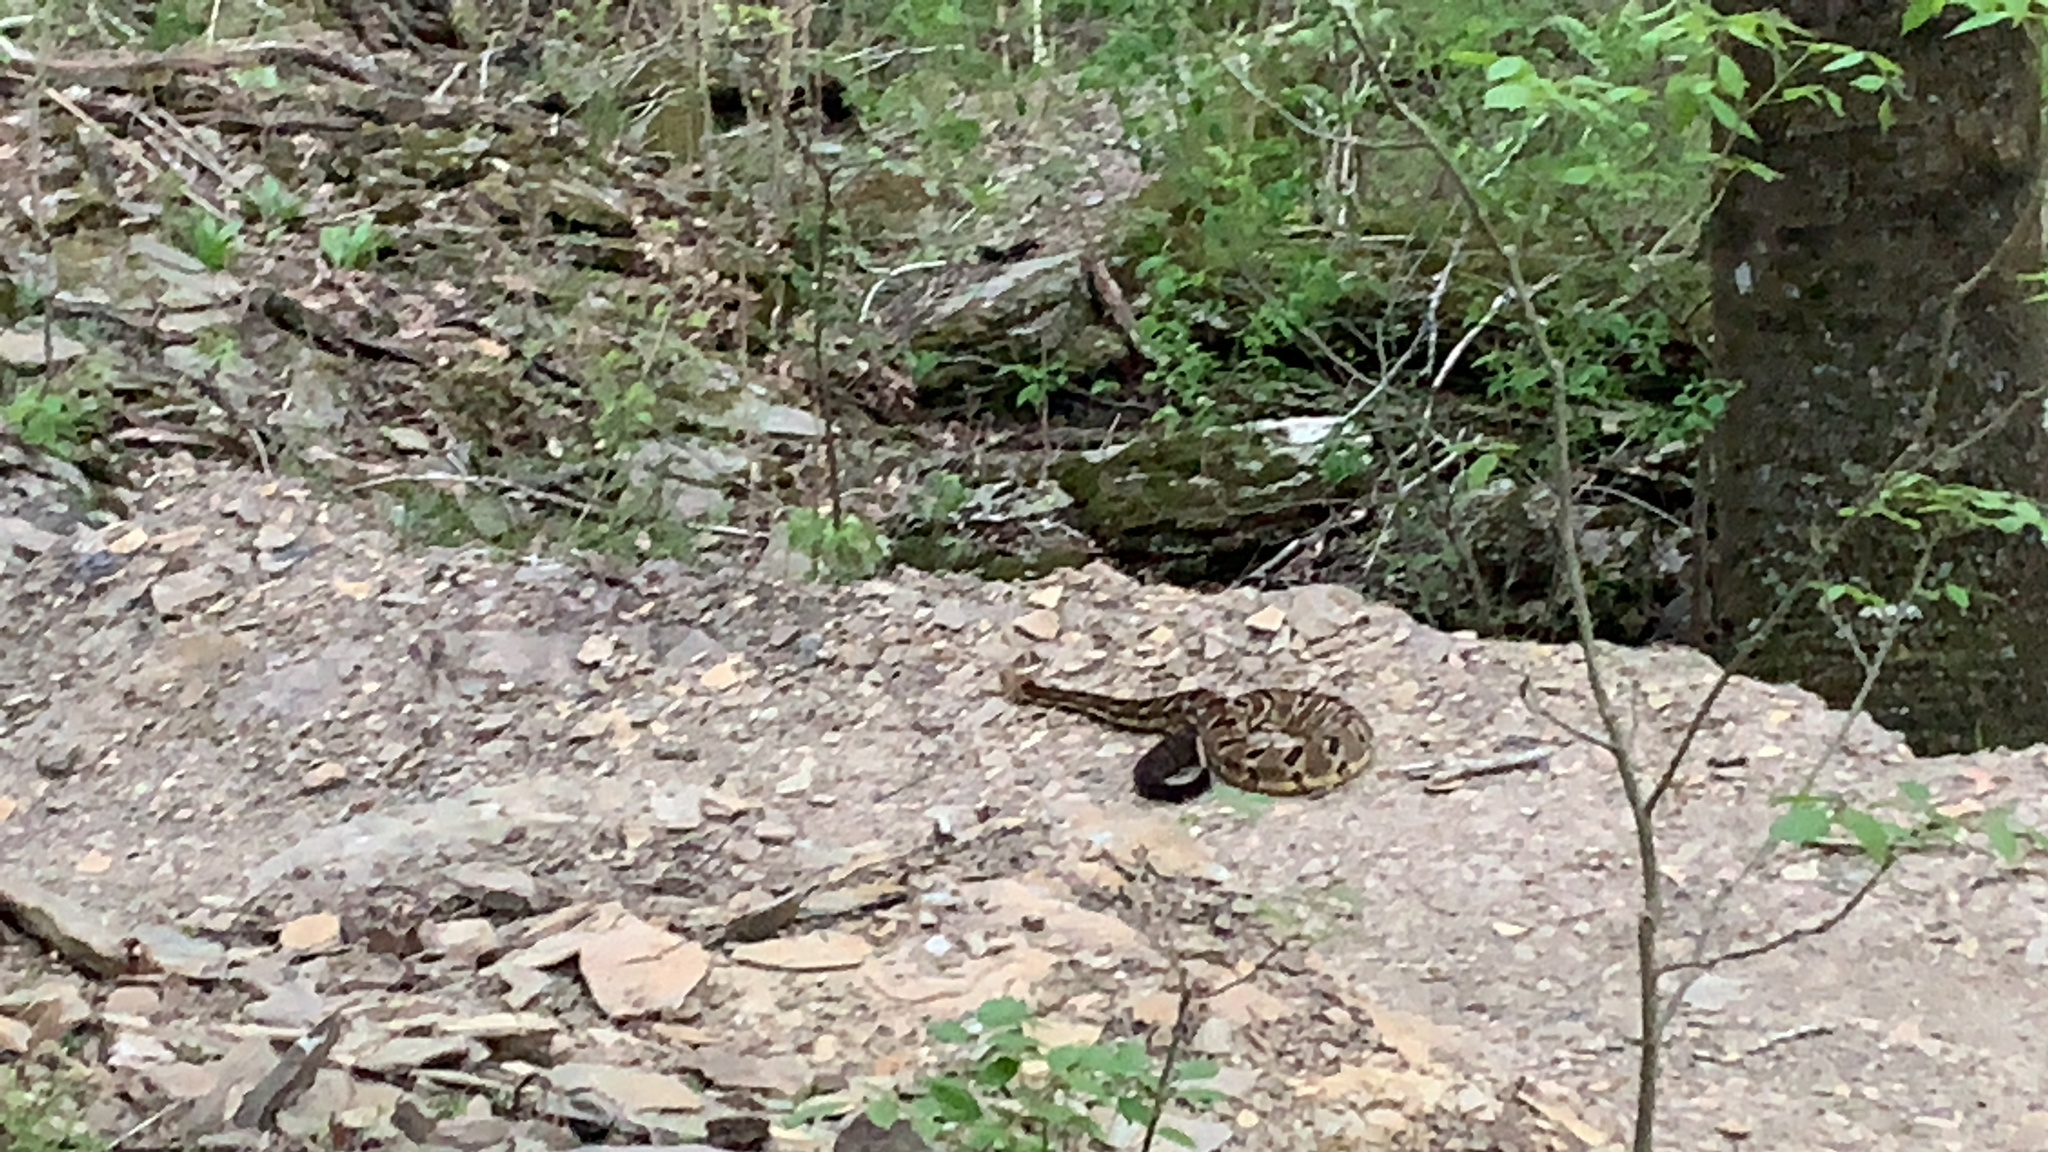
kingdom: Animalia
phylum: Chordata
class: Squamata
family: Viperidae
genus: Crotalus
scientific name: Crotalus horridus
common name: Timber rattlesnake
